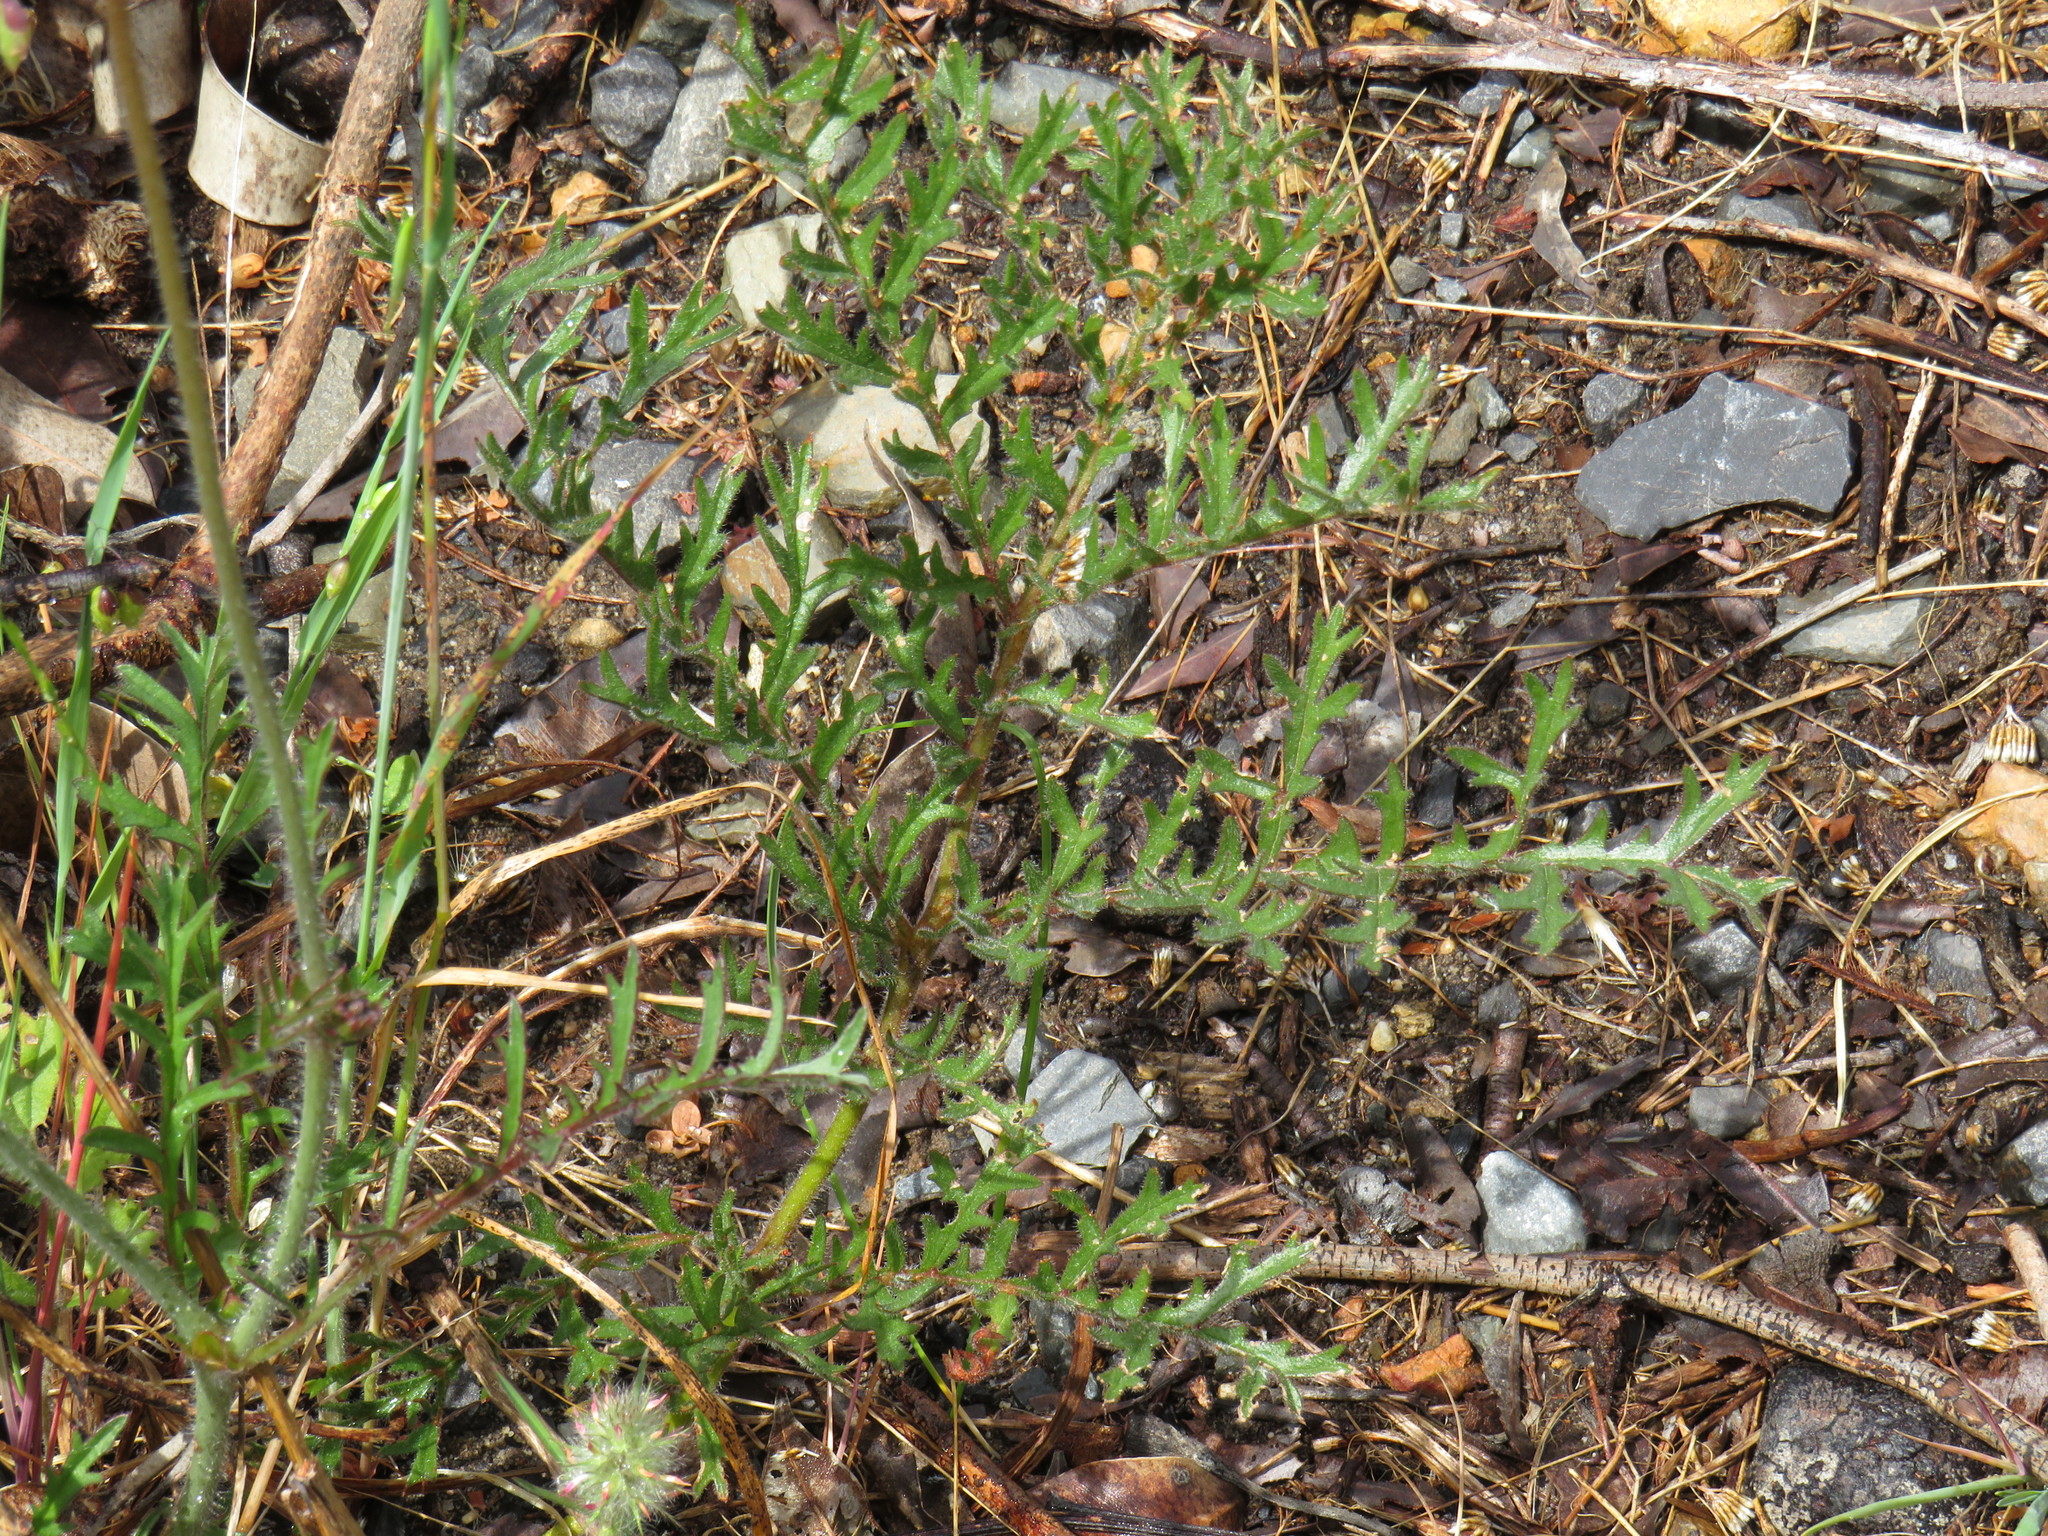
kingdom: Plantae
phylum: Tracheophyta
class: Magnoliopsida
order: Geraniales
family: Geraniaceae
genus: Pelargonium
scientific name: Pelargonium triste
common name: Night-scent pelargonium
